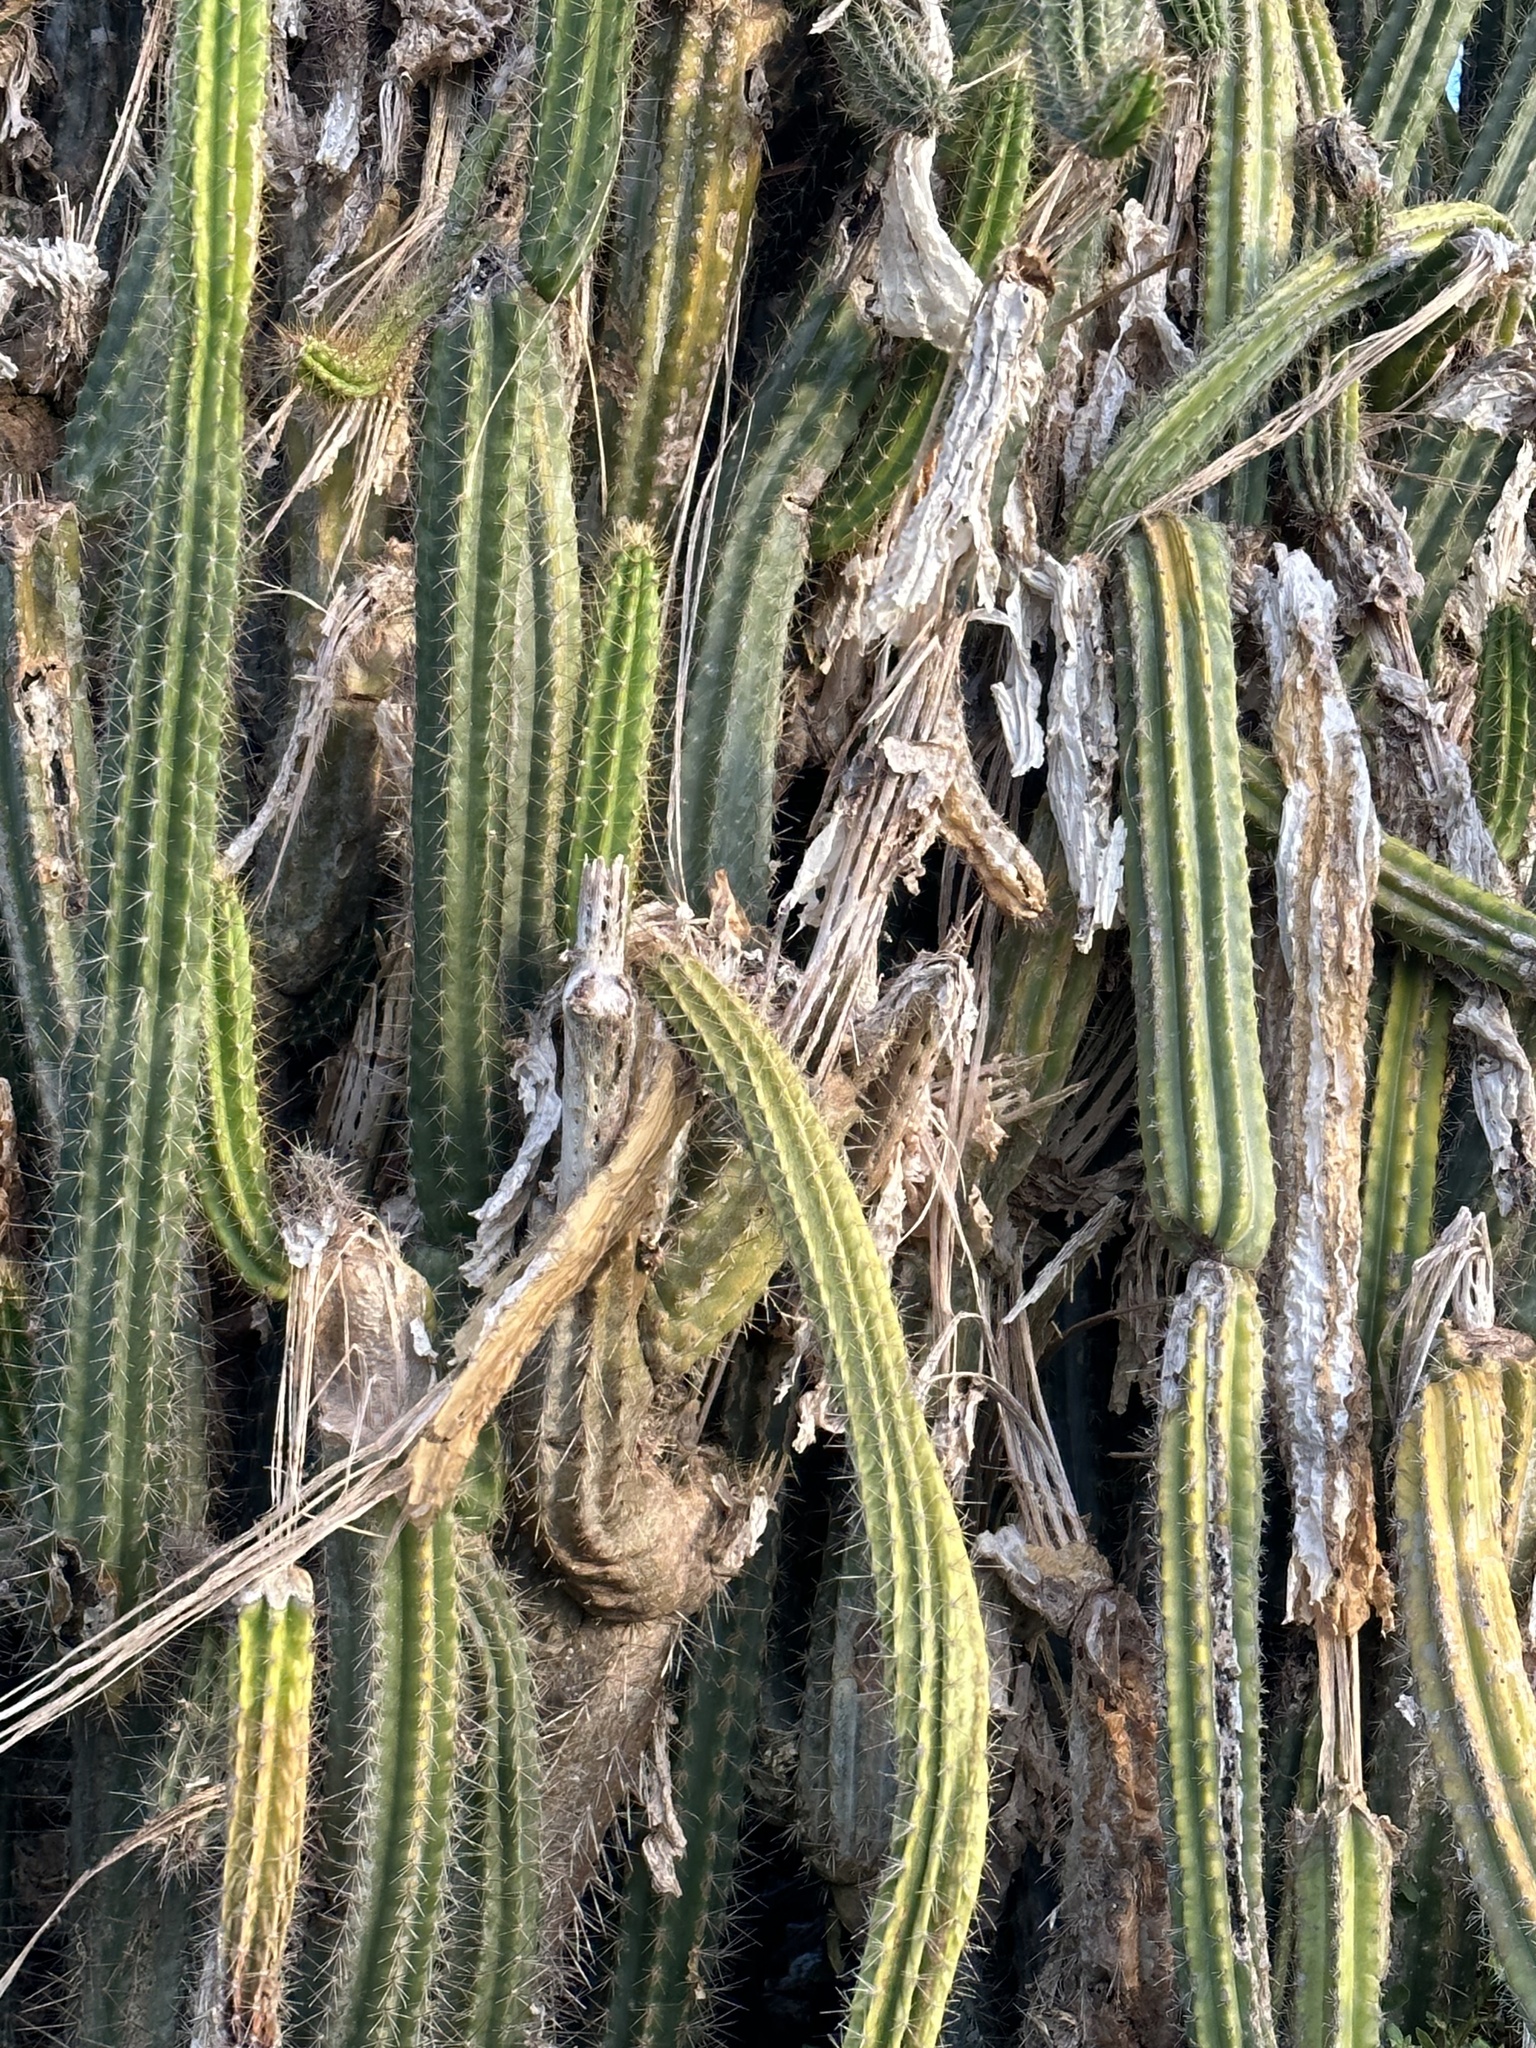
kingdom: Plantae
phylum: Tracheophyta
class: Magnoliopsida
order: Caryophyllales
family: Cactaceae
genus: Pilosocereus
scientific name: Pilosocereus curtisii
